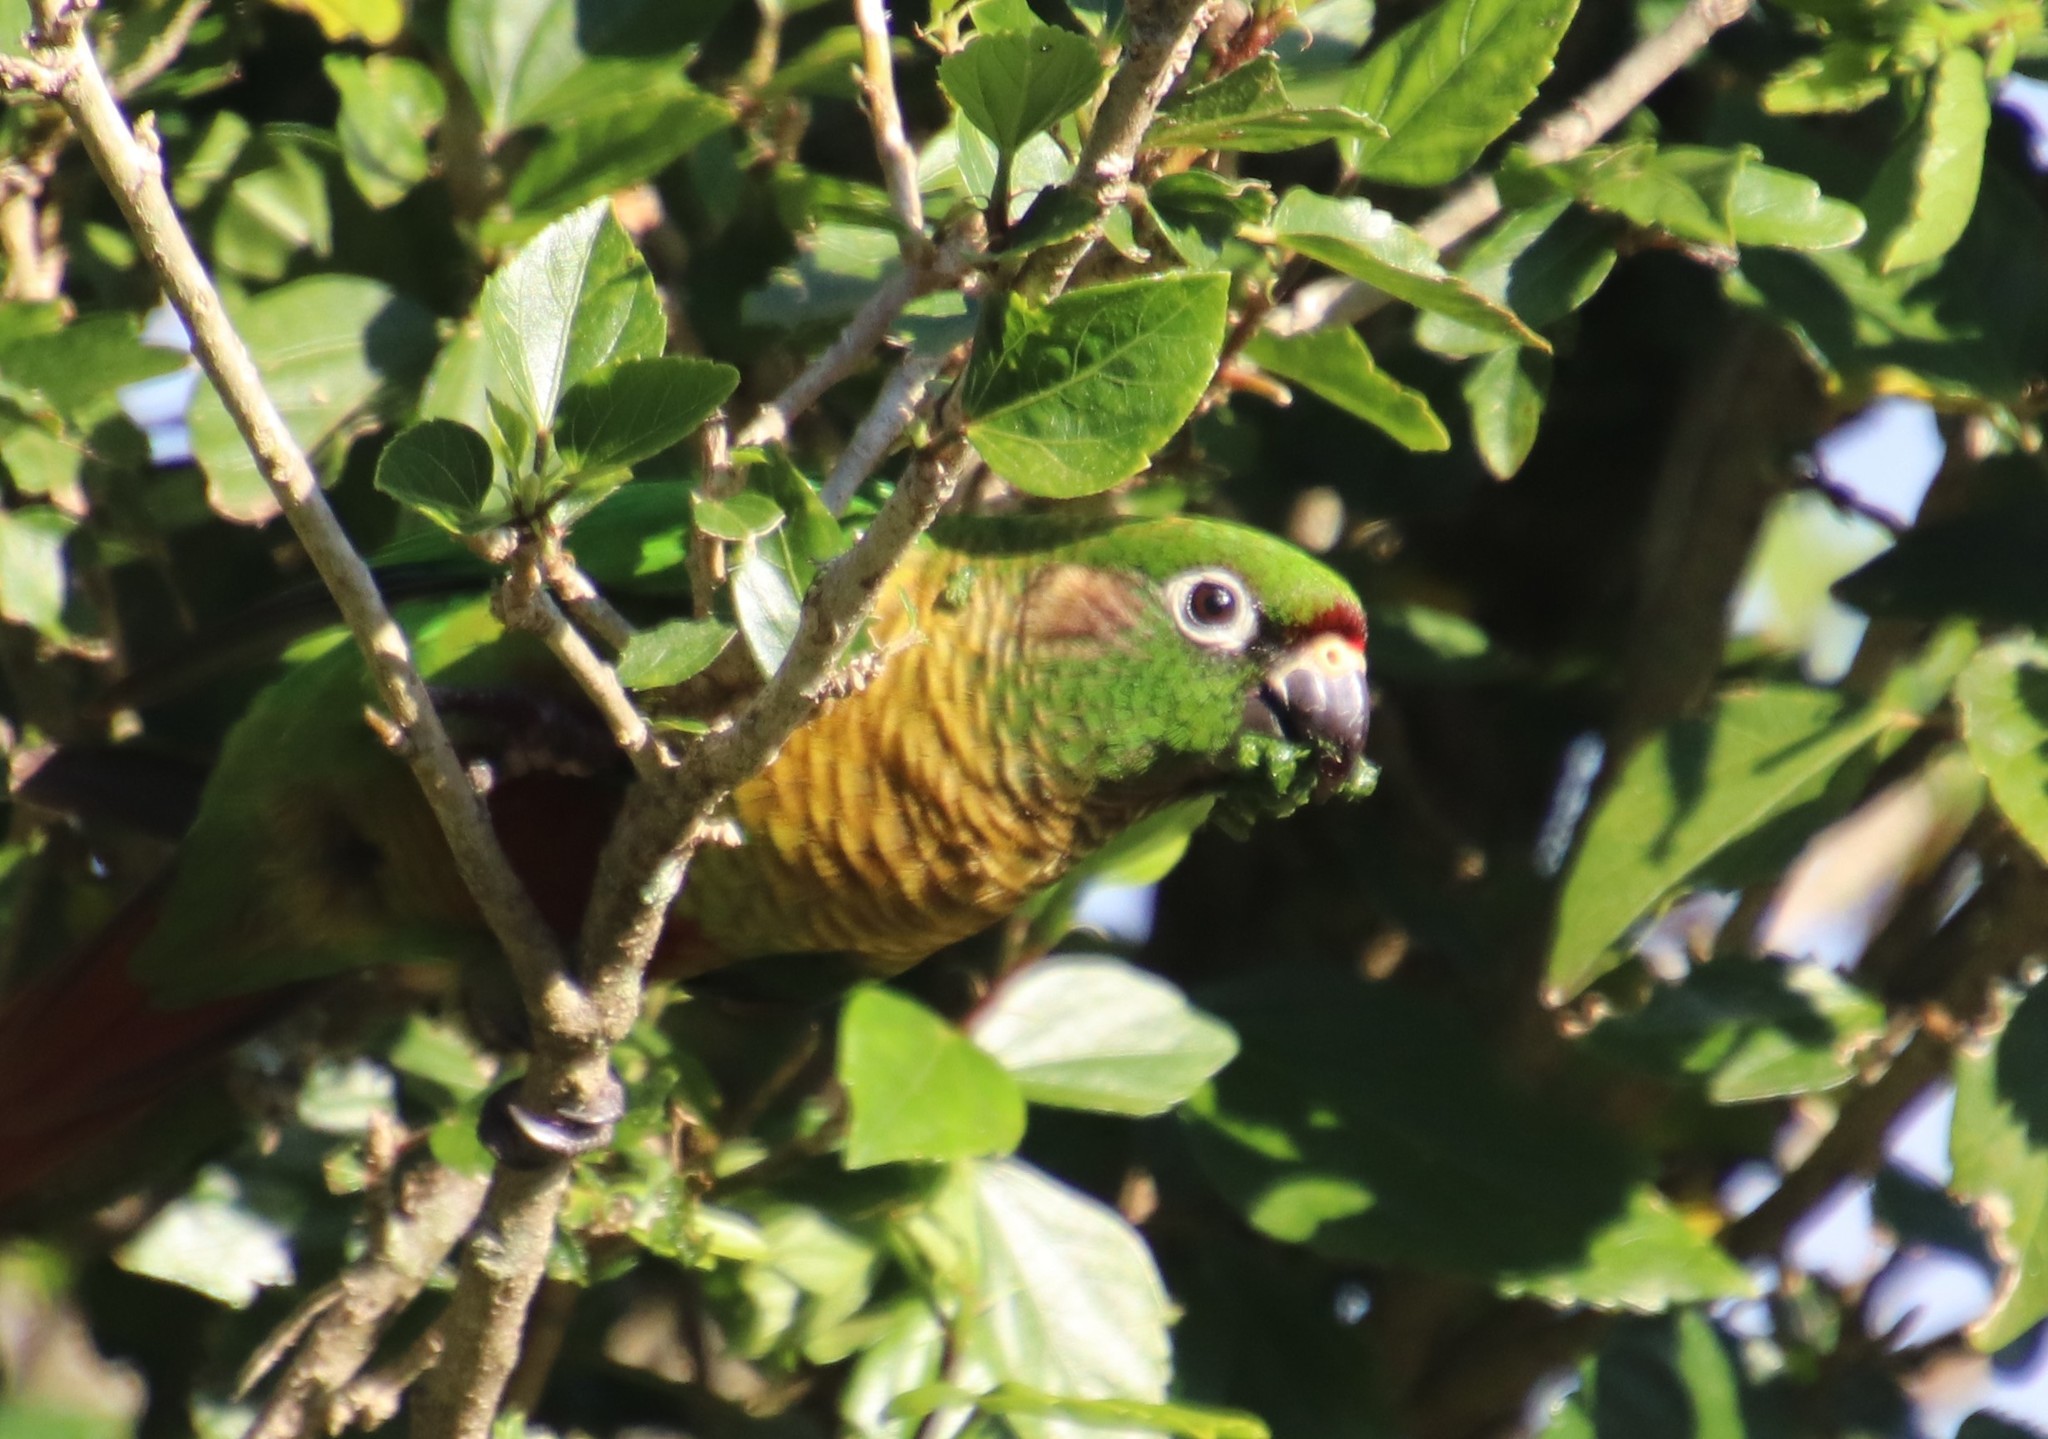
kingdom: Animalia
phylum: Chordata
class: Aves
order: Psittaciformes
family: Psittacidae
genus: Pyrrhura
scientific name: Pyrrhura frontalis
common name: Maroon-bellied parakeet
